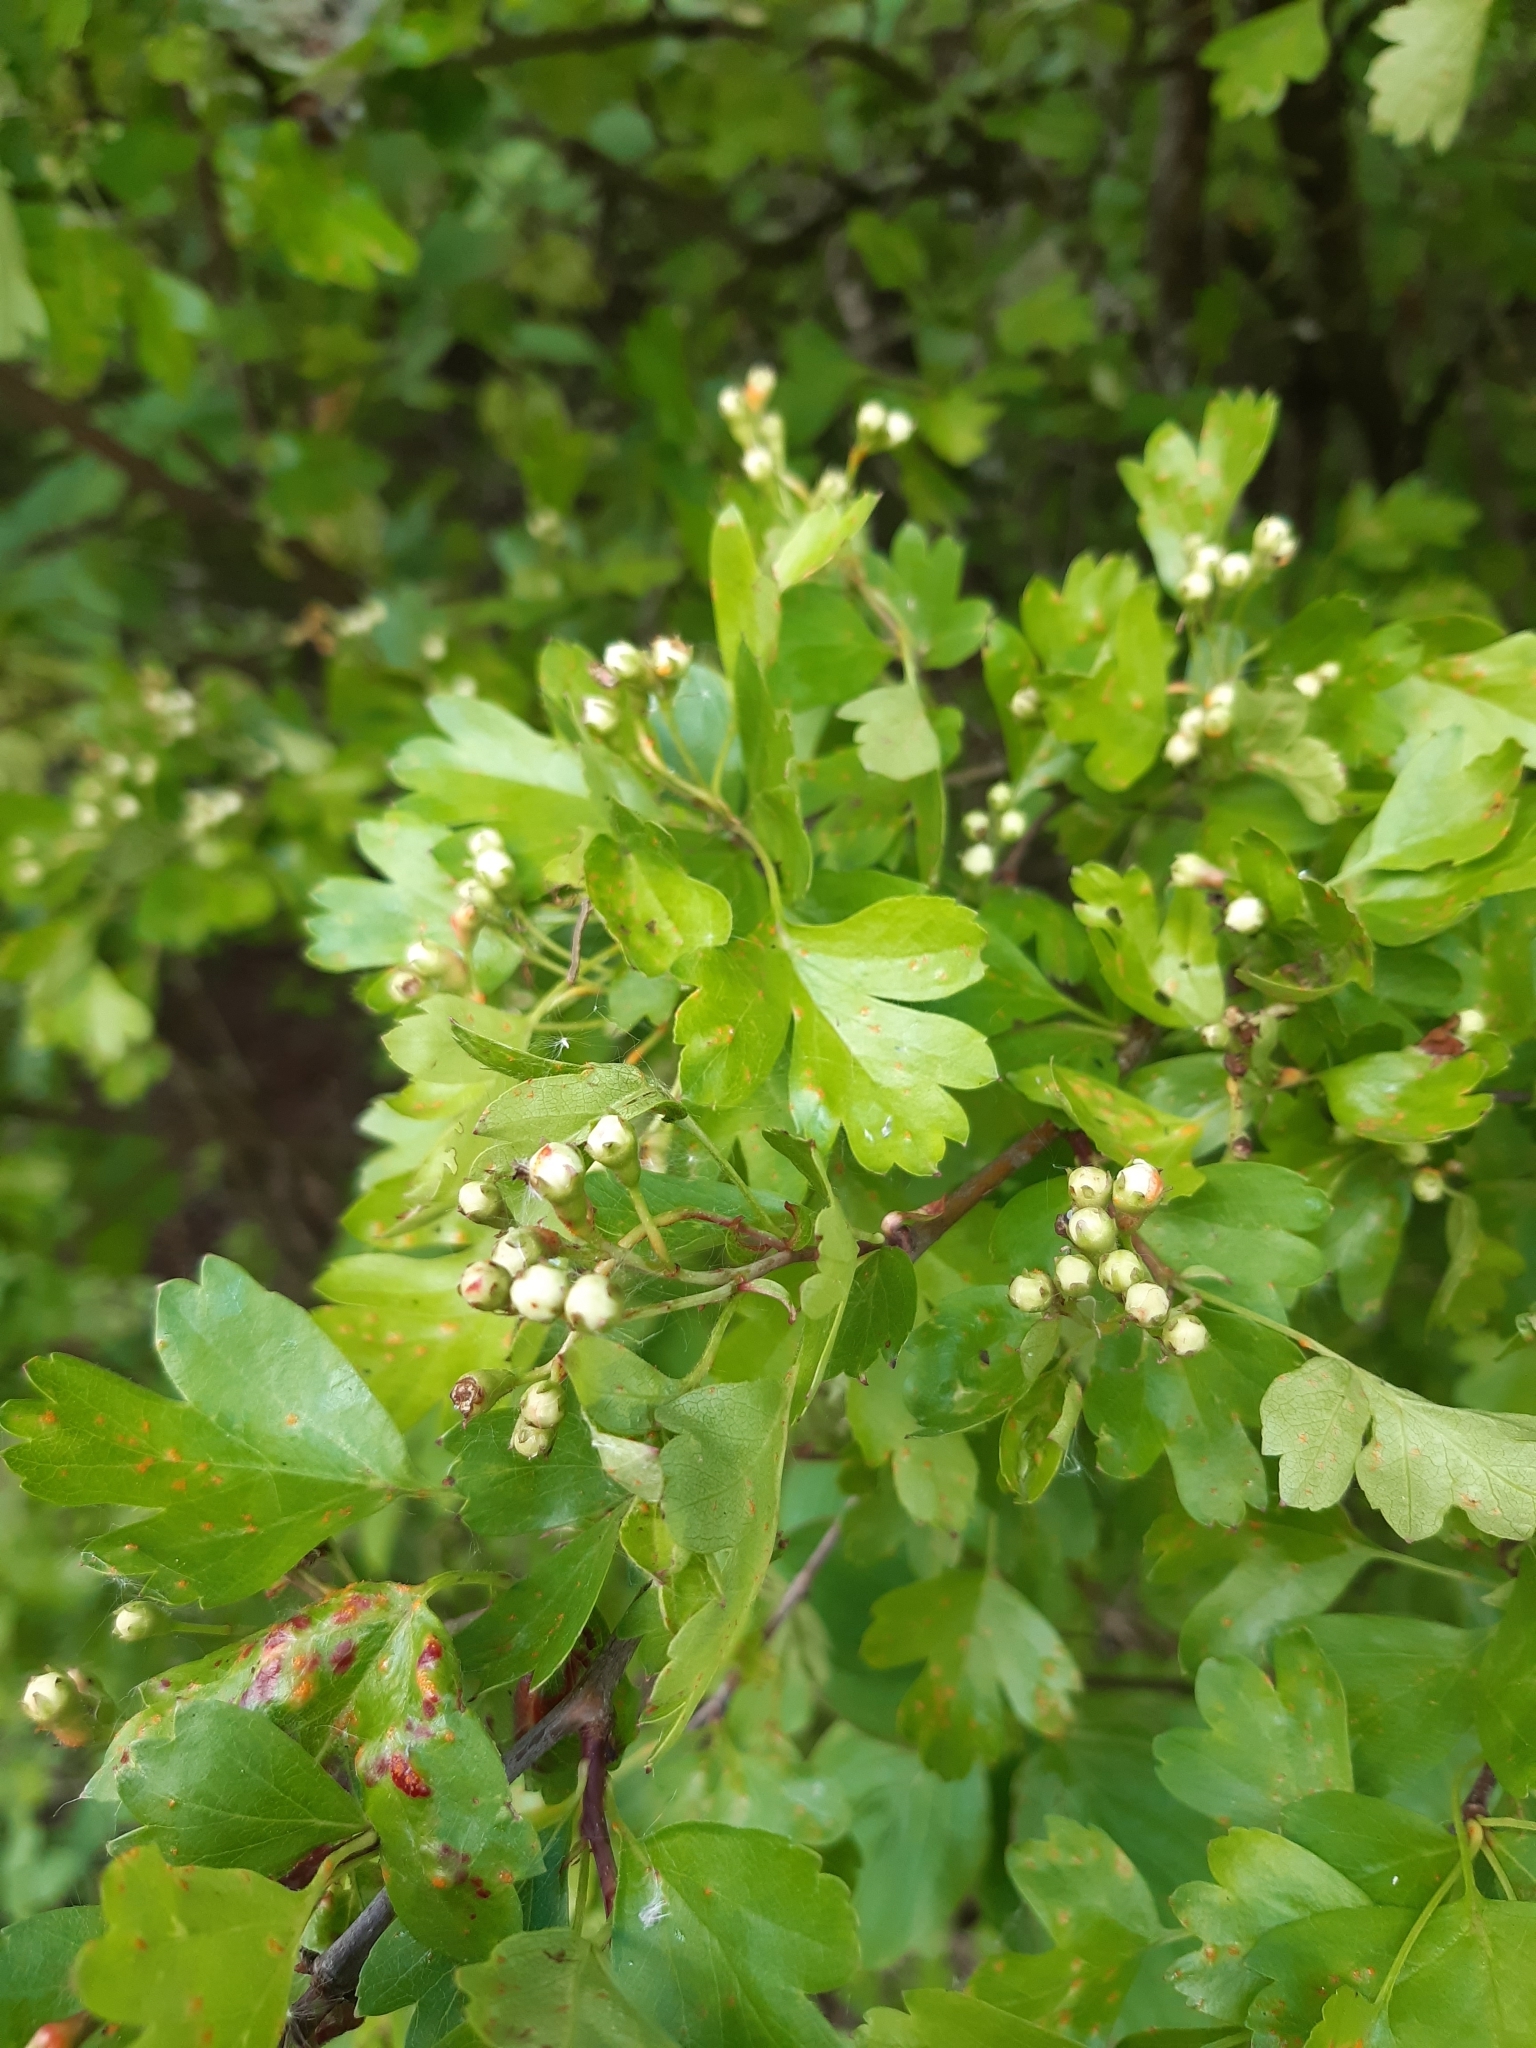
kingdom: Plantae
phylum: Tracheophyta
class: Magnoliopsida
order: Rosales
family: Rosaceae
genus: Crataegus
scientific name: Crataegus monogyna
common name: Hawthorn
